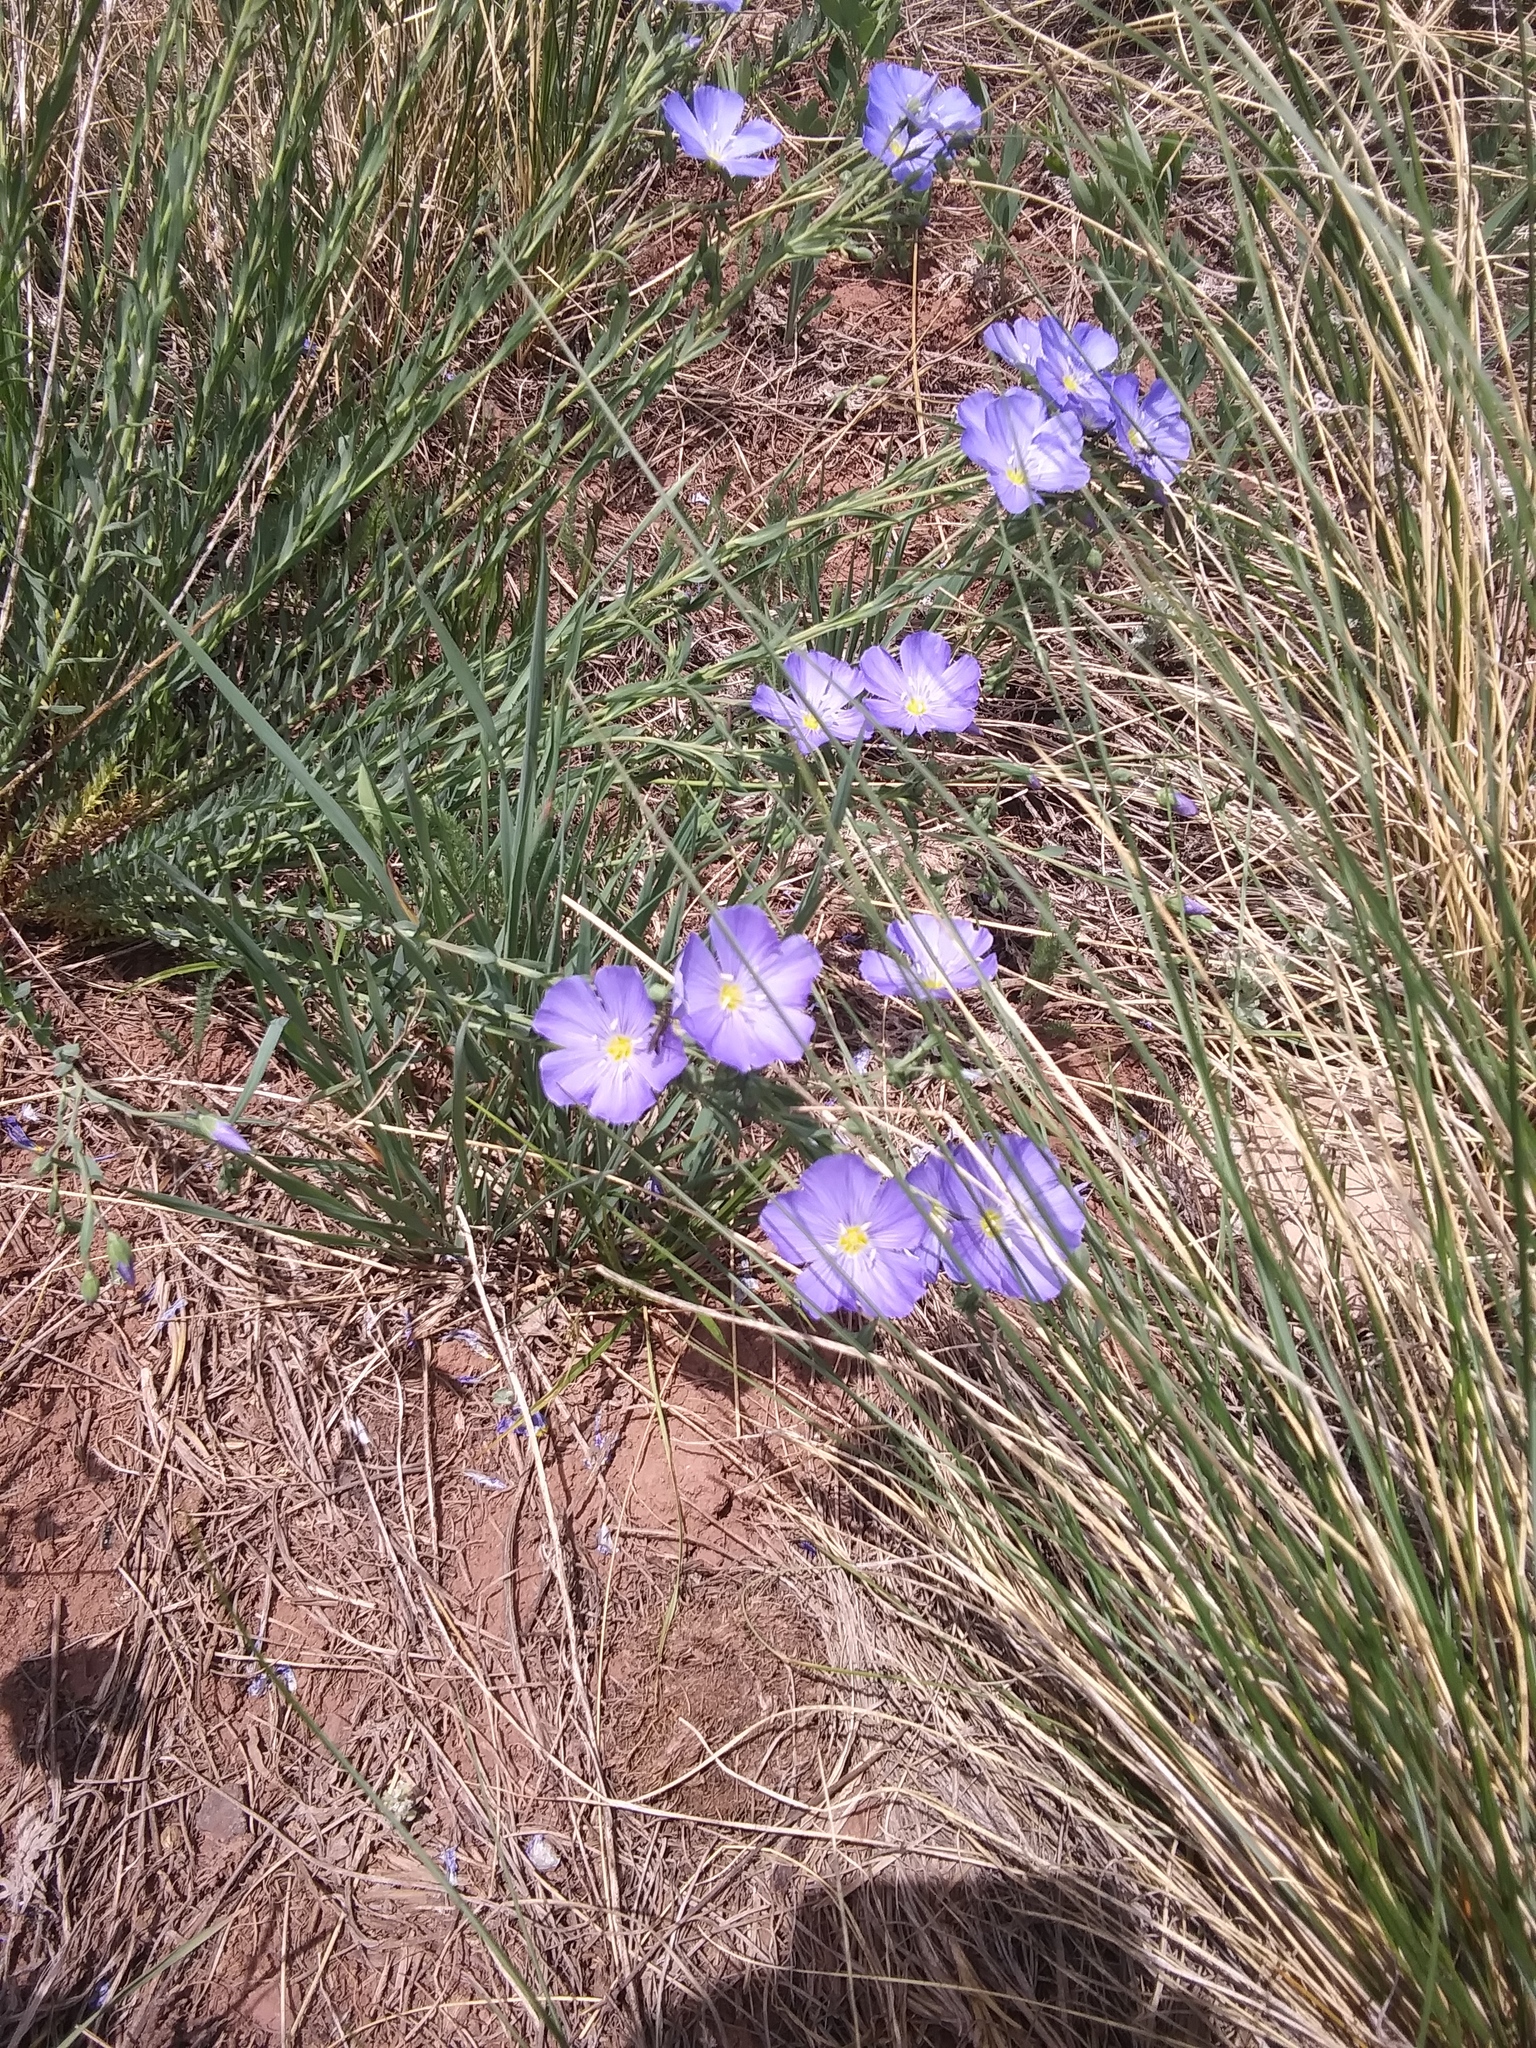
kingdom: Plantae
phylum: Tracheophyta
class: Magnoliopsida
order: Malpighiales
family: Linaceae
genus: Linum
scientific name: Linum lewisii
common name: Prairie flax
